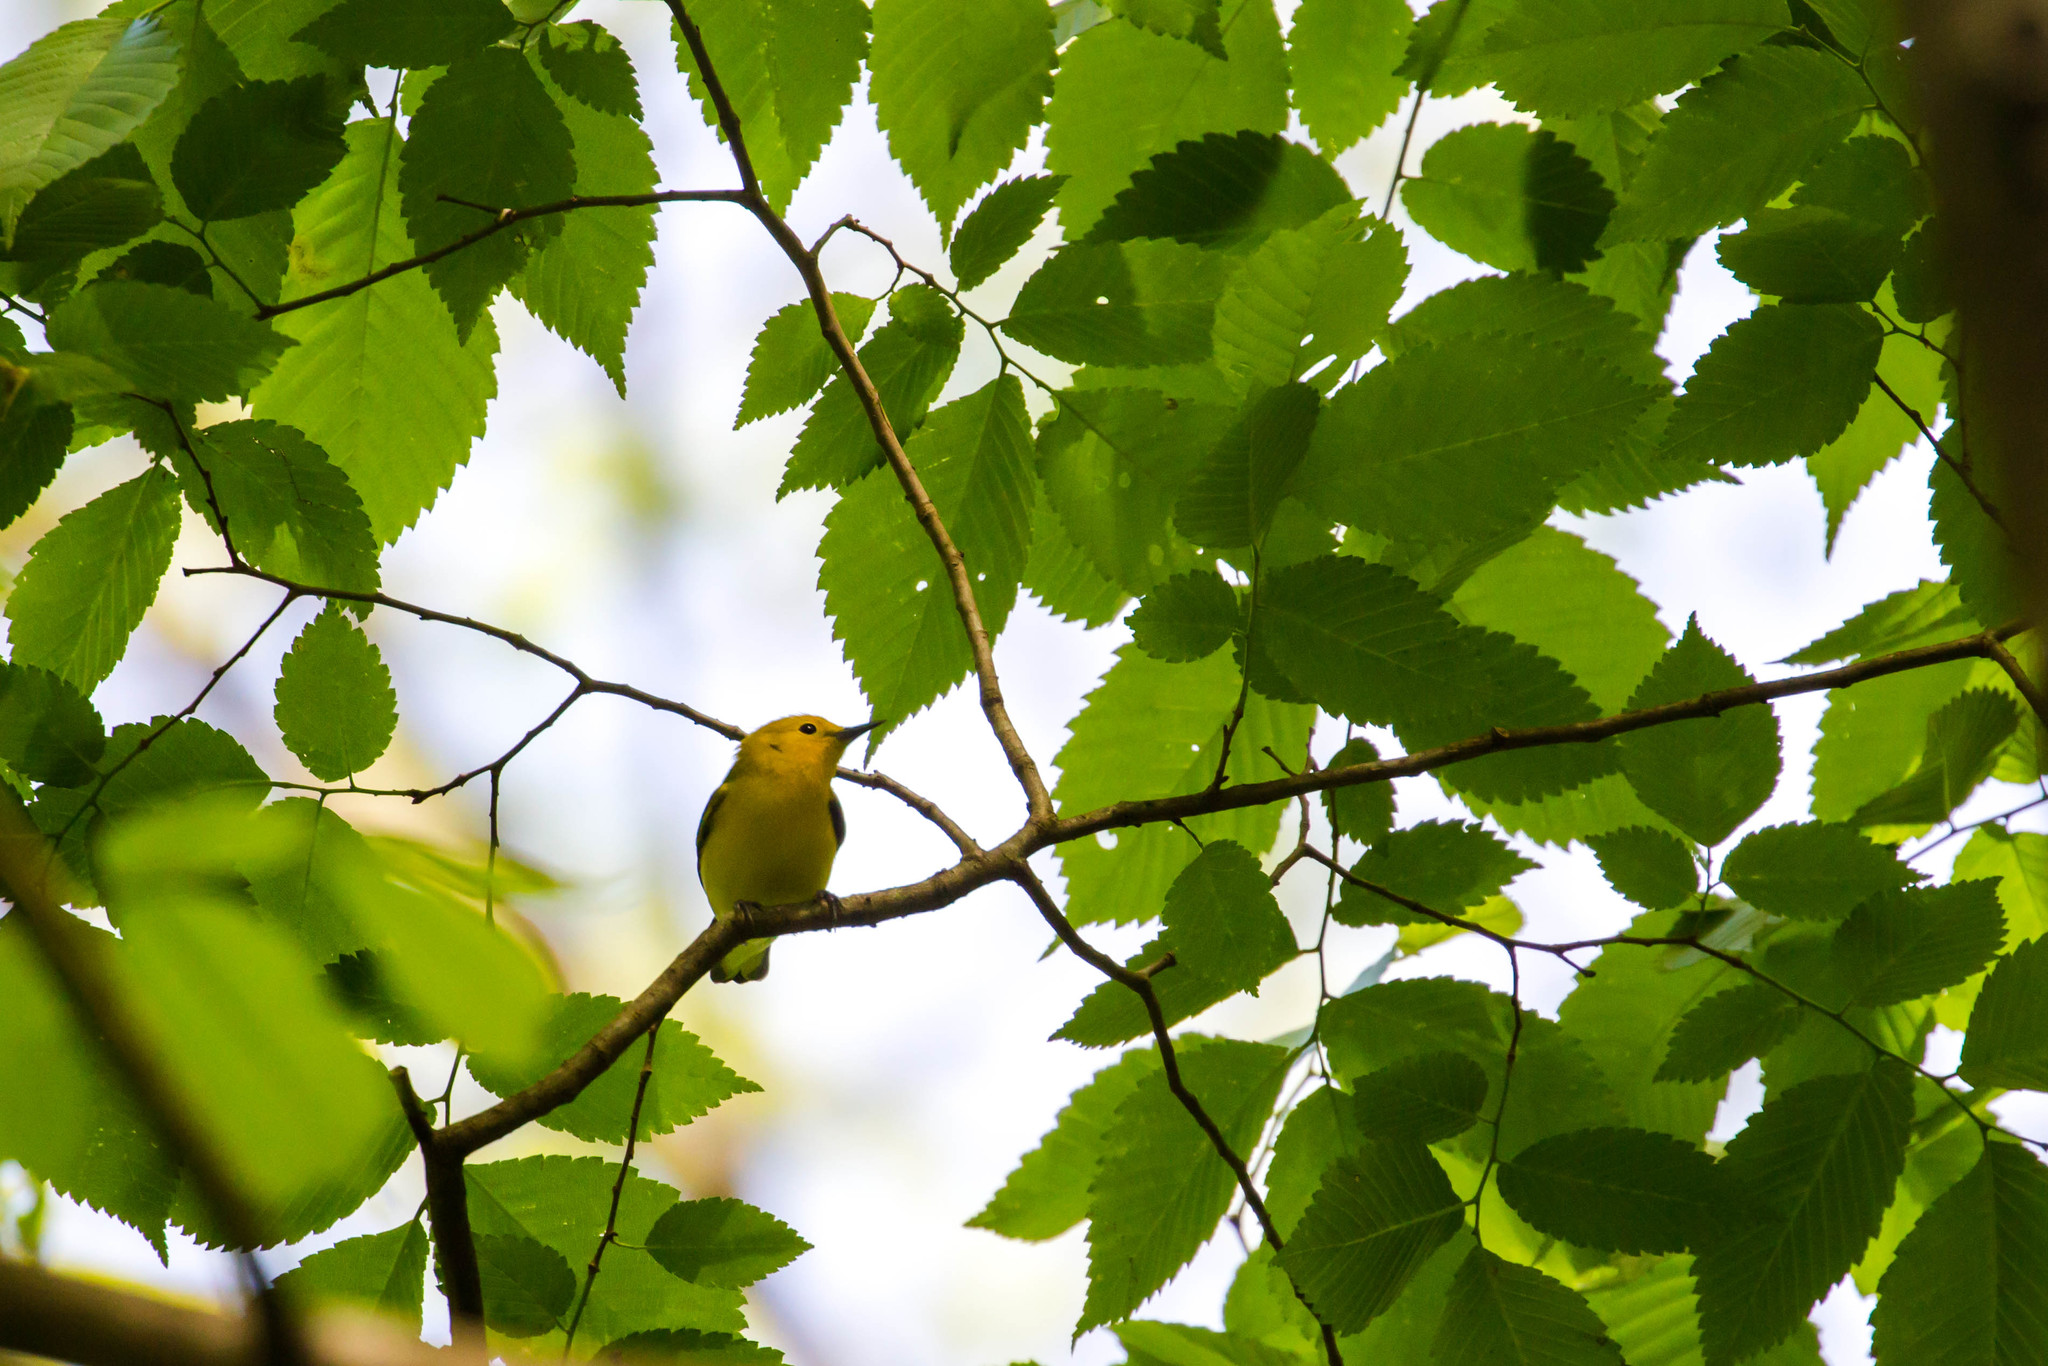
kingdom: Animalia
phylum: Chordata
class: Aves
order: Passeriformes
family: Parulidae
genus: Protonotaria
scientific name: Protonotaria citrea
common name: Prothonotary warbler
